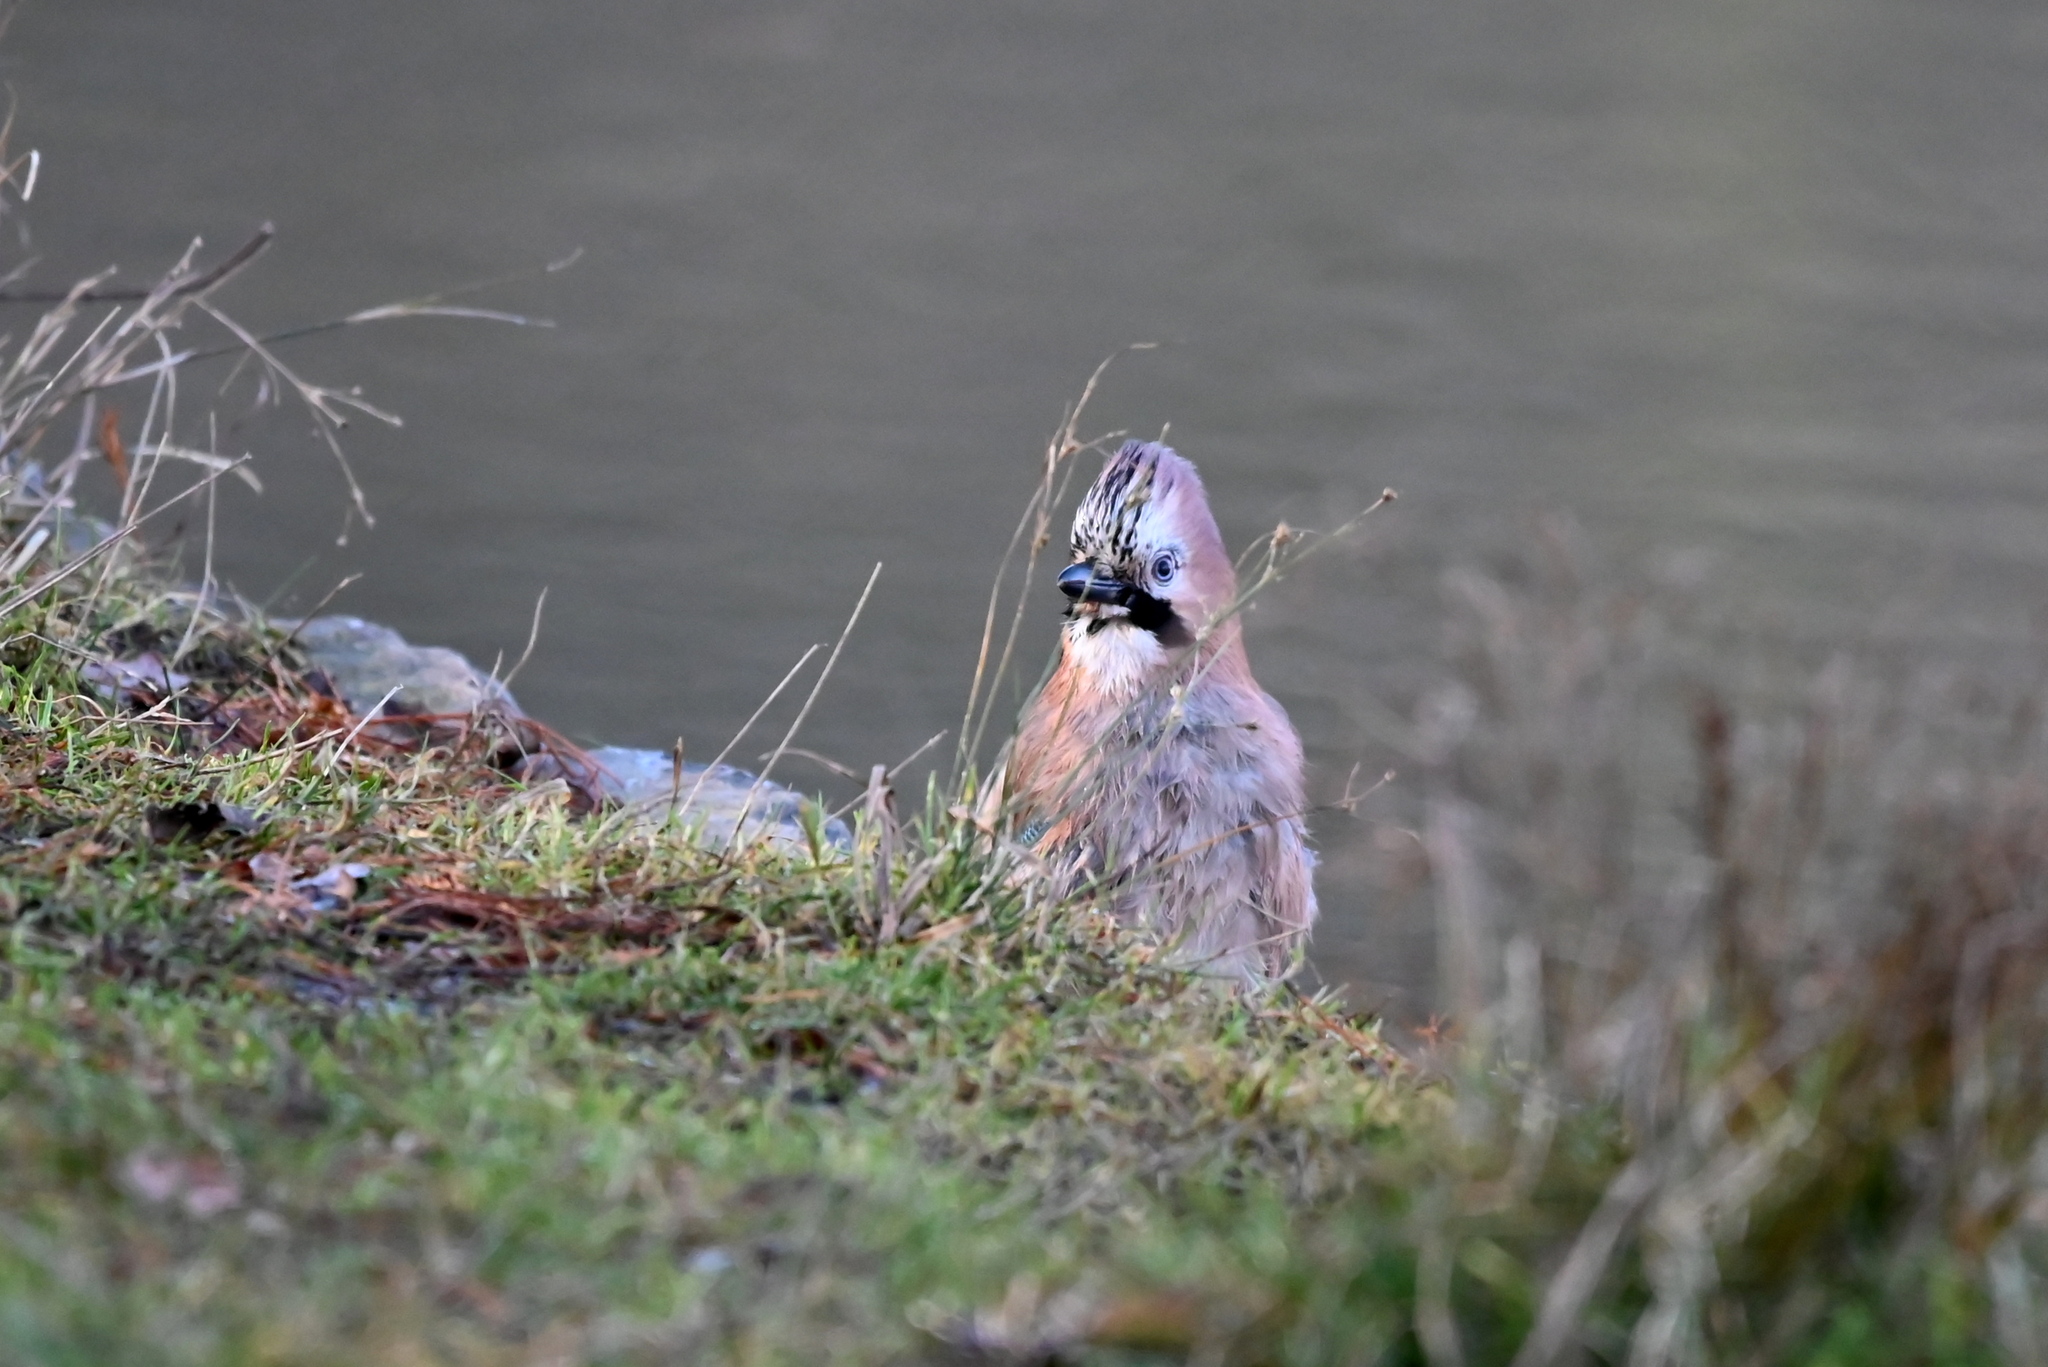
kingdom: Animalia
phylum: Chordata
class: Aves
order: Passeriformes
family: Corvidae
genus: Garrulus
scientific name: Garrulus glandarius
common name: Eurasian jay
